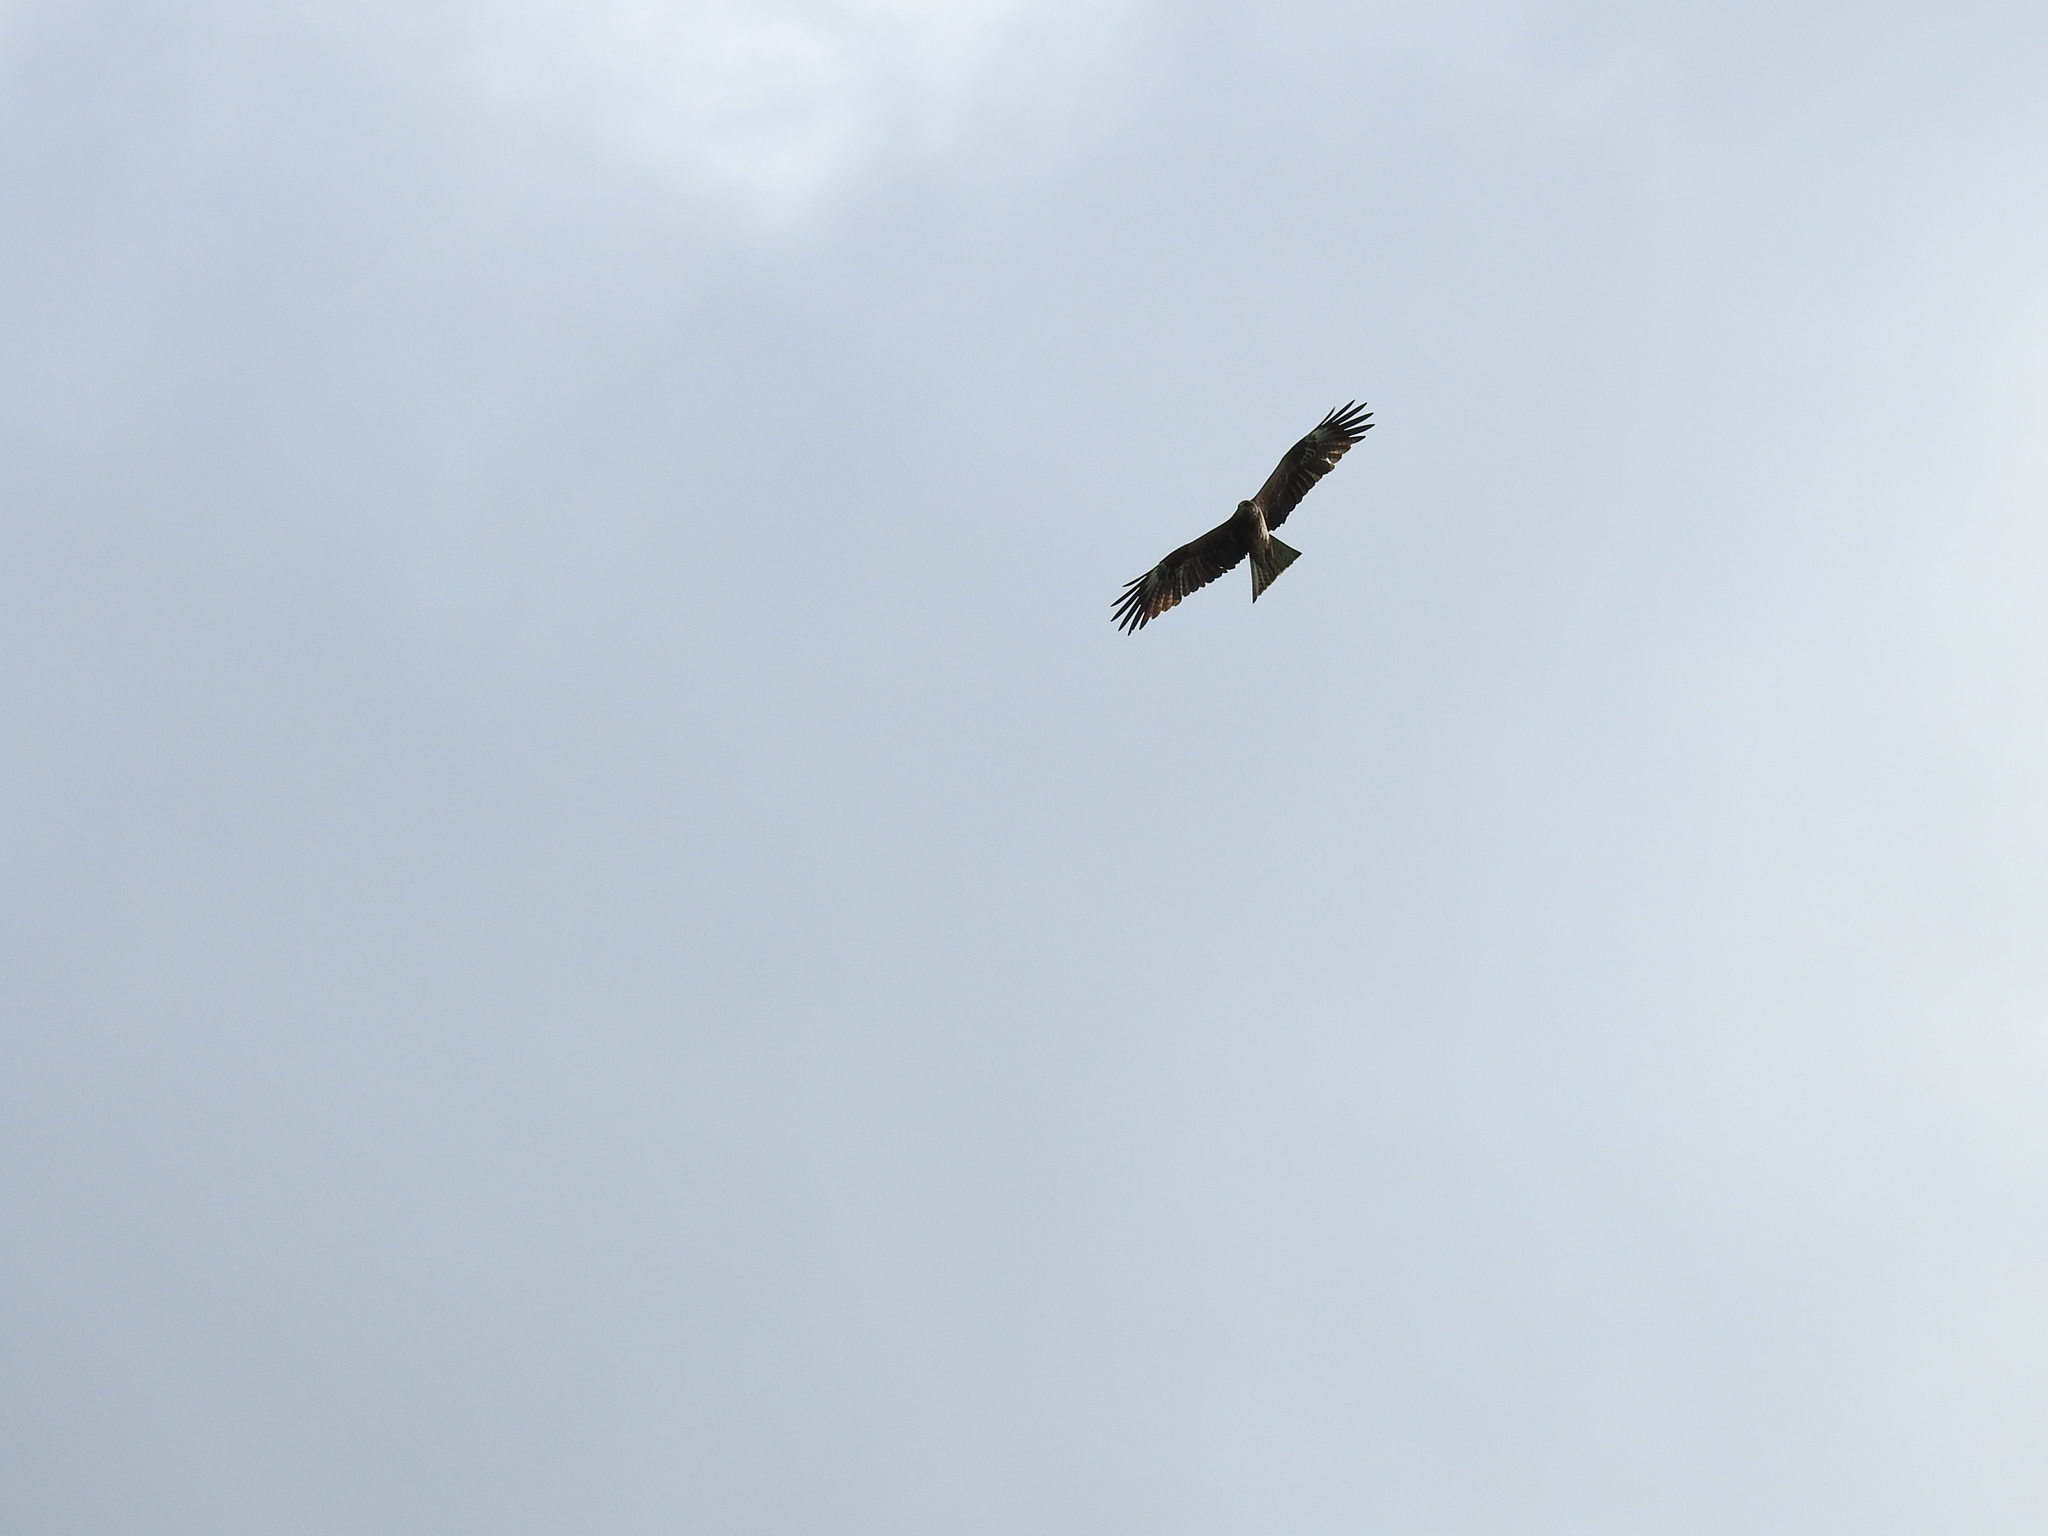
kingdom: Animalia
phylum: Chordata
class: Aves
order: Accipitriformes
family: Accipitridae
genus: Milvus
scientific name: Milvus migrans
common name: Black kite
